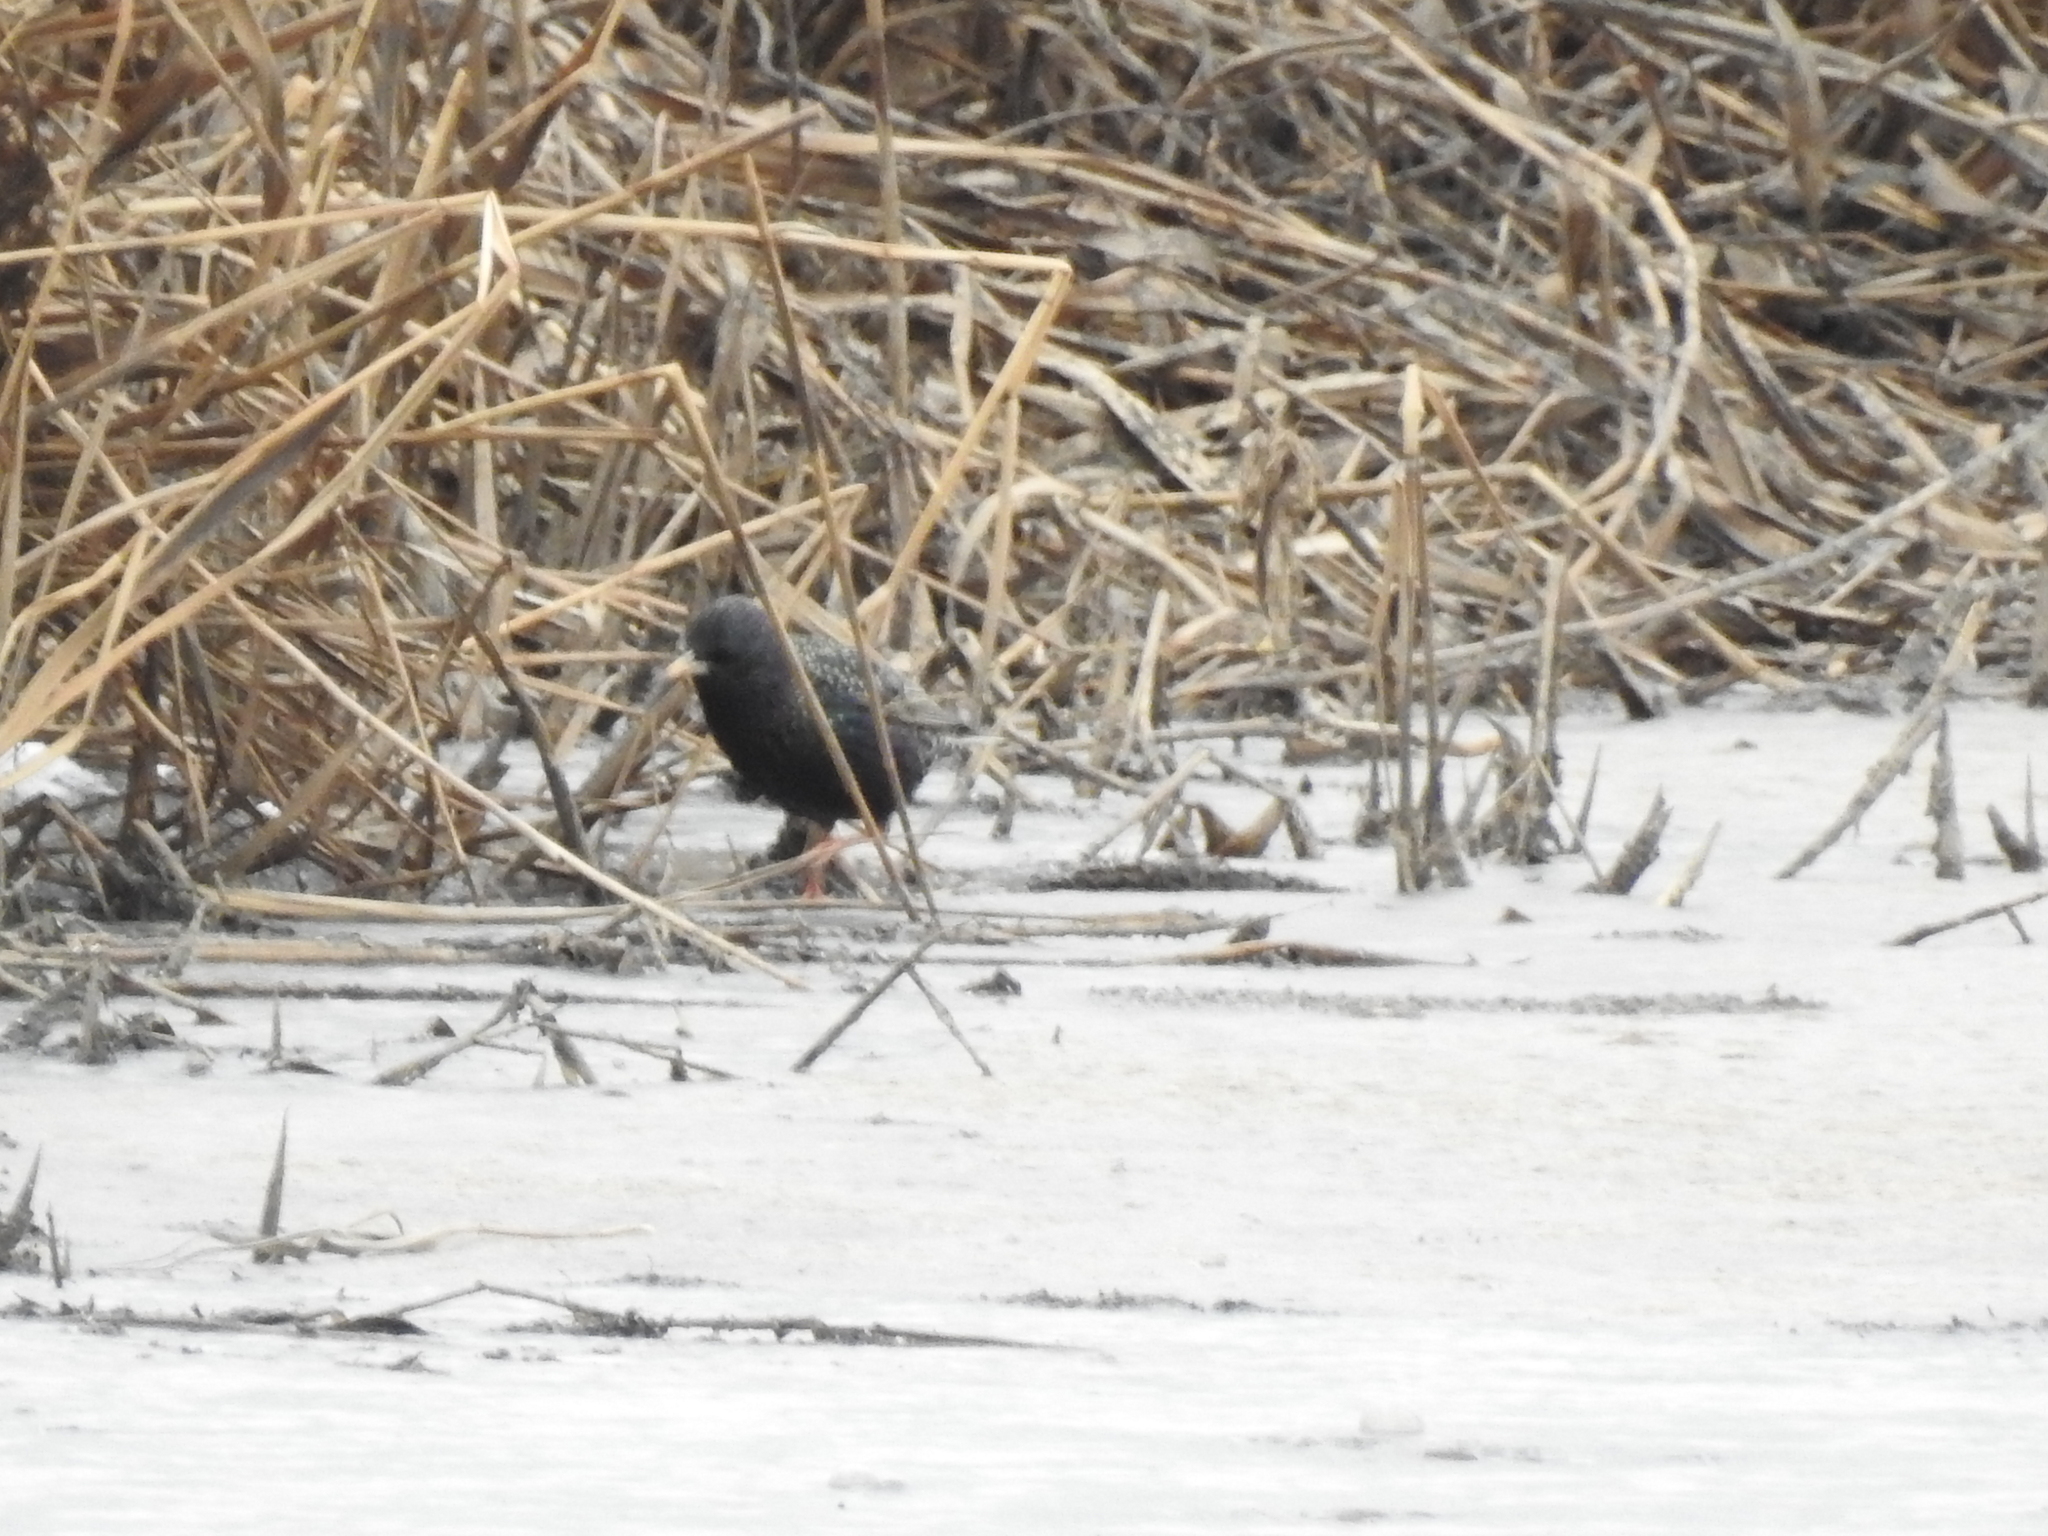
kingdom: Animalia
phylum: Chordata
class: Aves
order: Passeriformes
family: Sturnidae
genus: Sturnus
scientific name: Sturnus vulgaris
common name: Common starling
